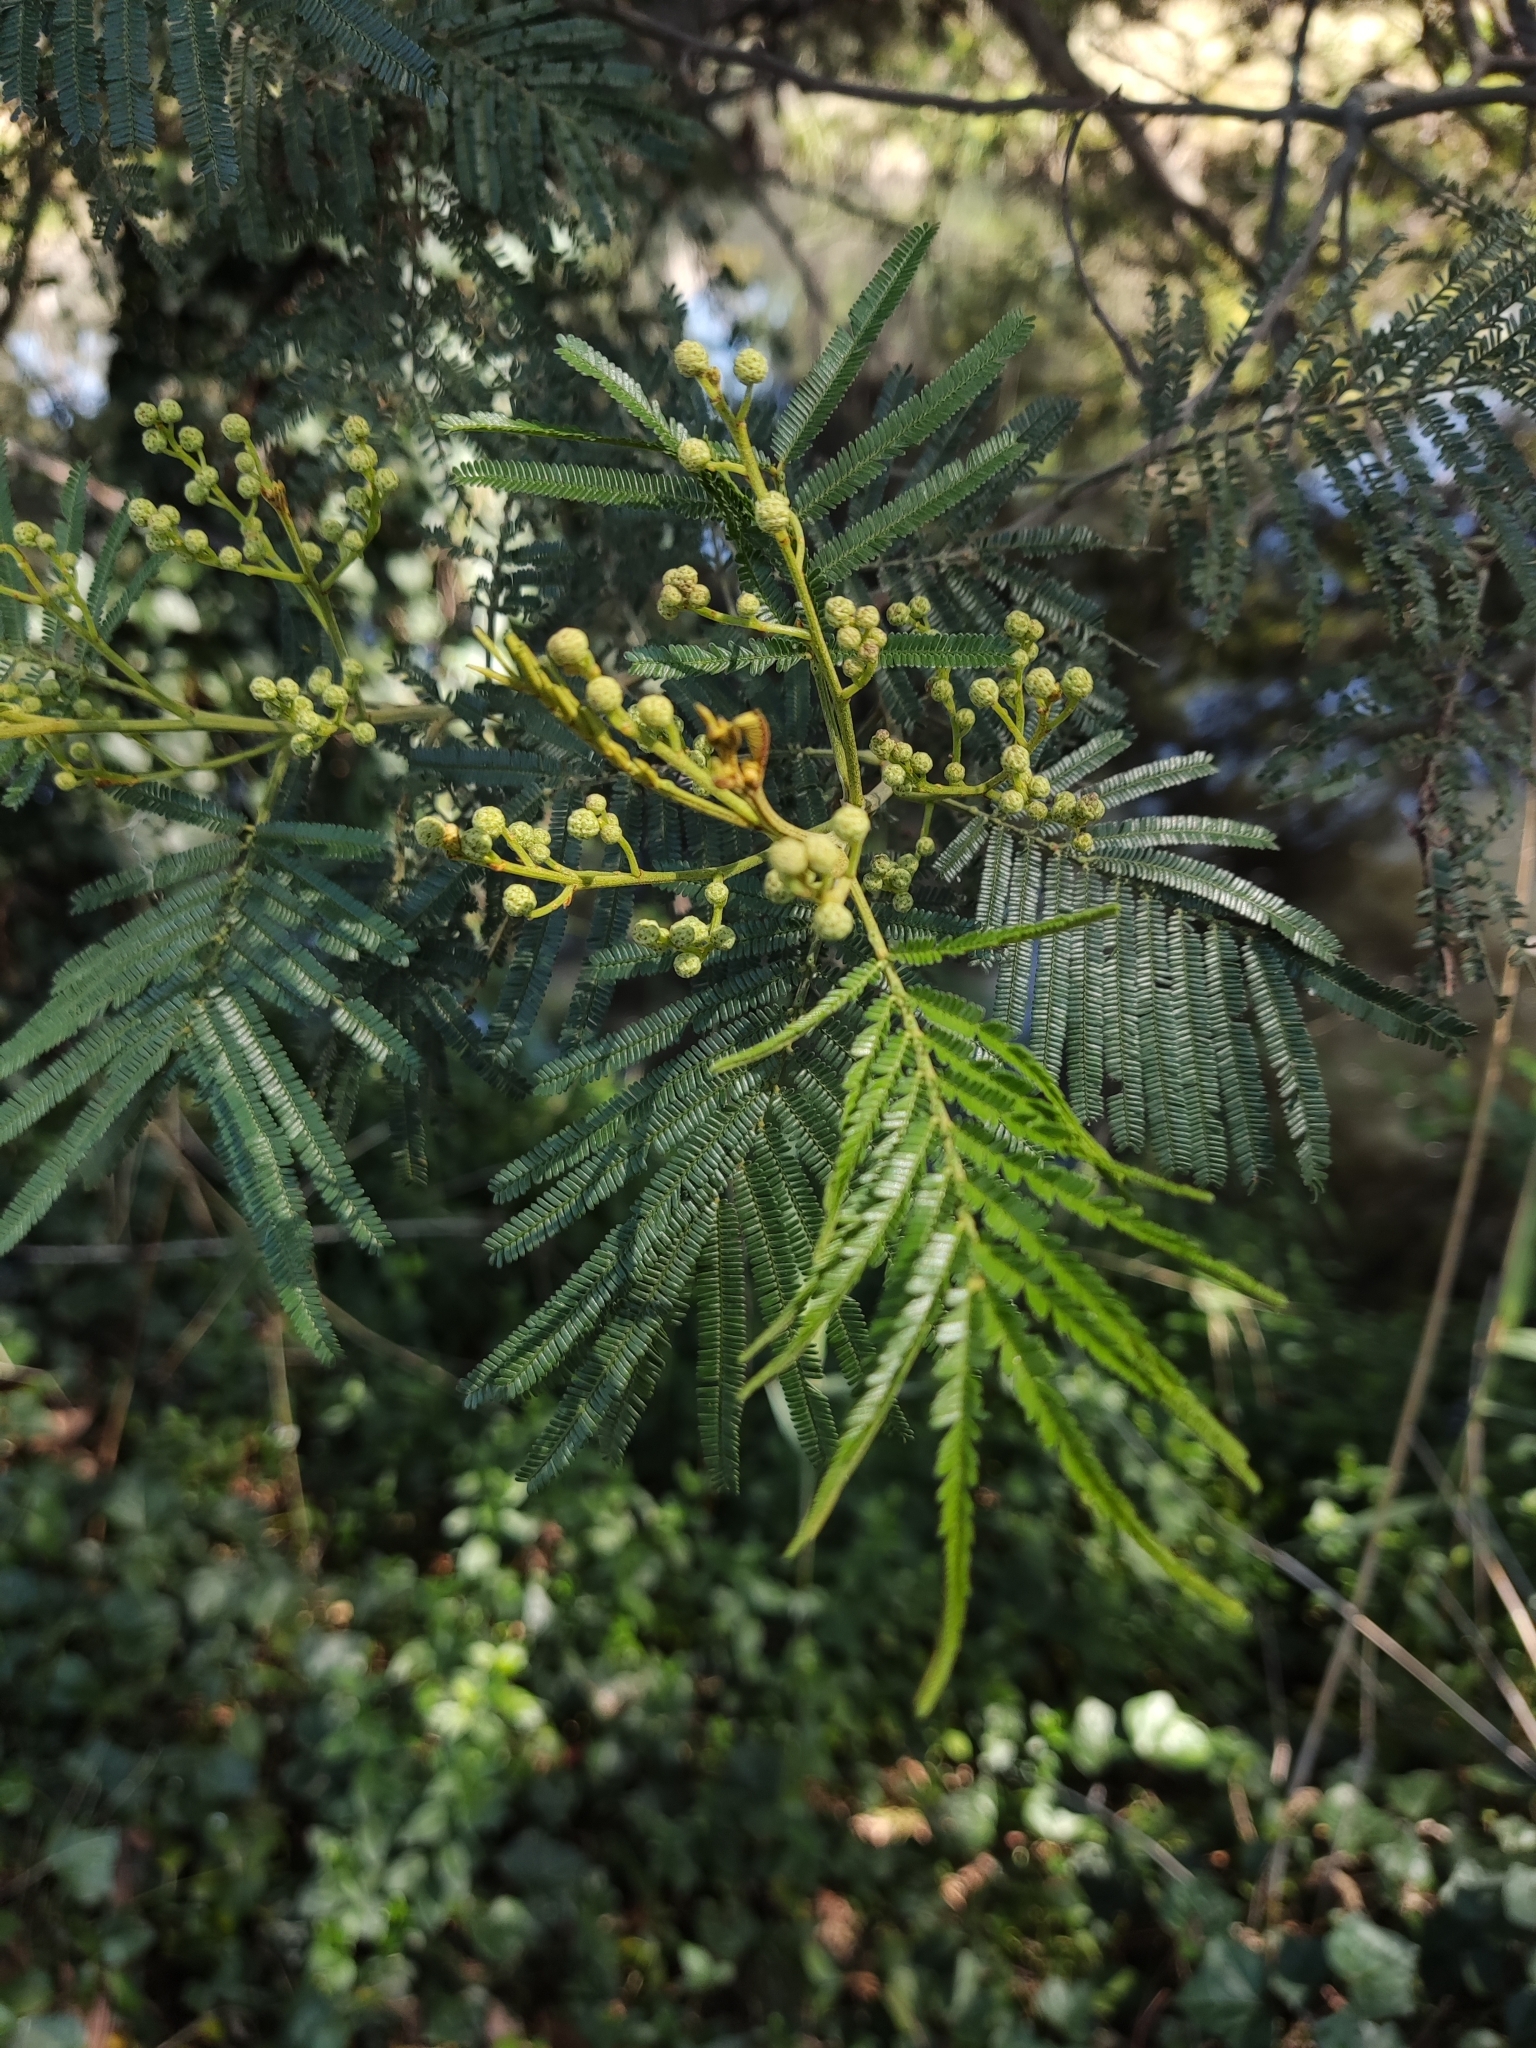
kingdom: Plantae
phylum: Tracheophyta
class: Magnoliopsida
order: Fabales
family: Fabaceae
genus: Acacia
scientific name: Acacia mearnsii
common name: Black wattle
